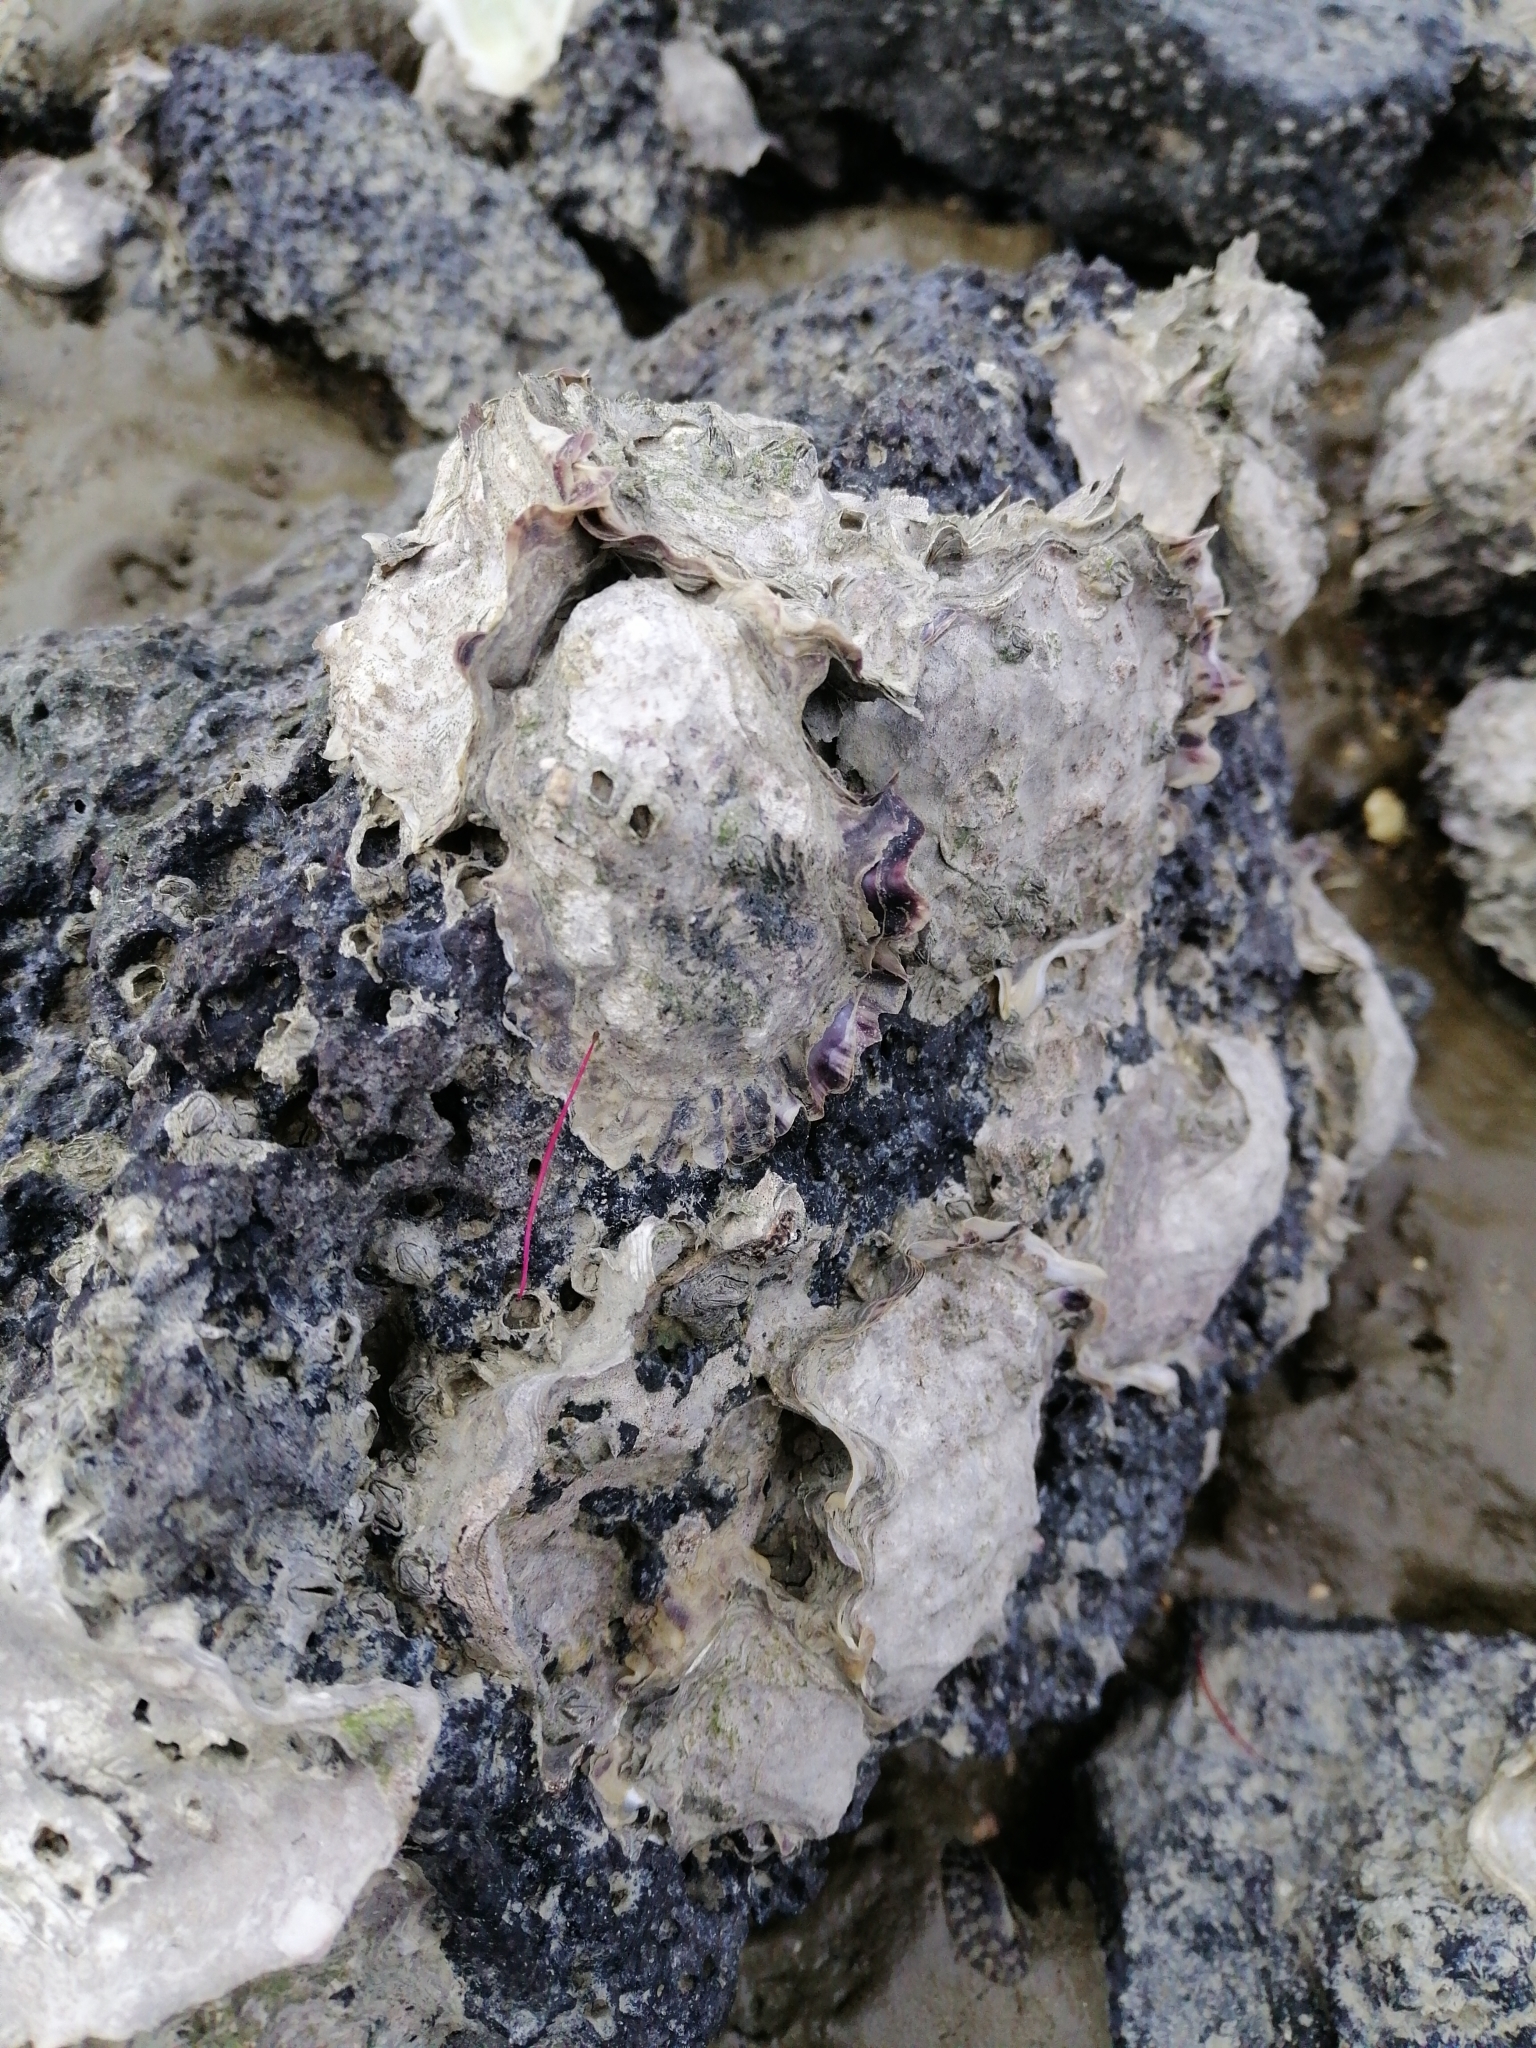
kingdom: Animalia
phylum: Mollusca
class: Bivalvia
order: Ostreida
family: Ostreidae
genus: Magallana
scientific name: Magallana gigas
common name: Pacific oyster
